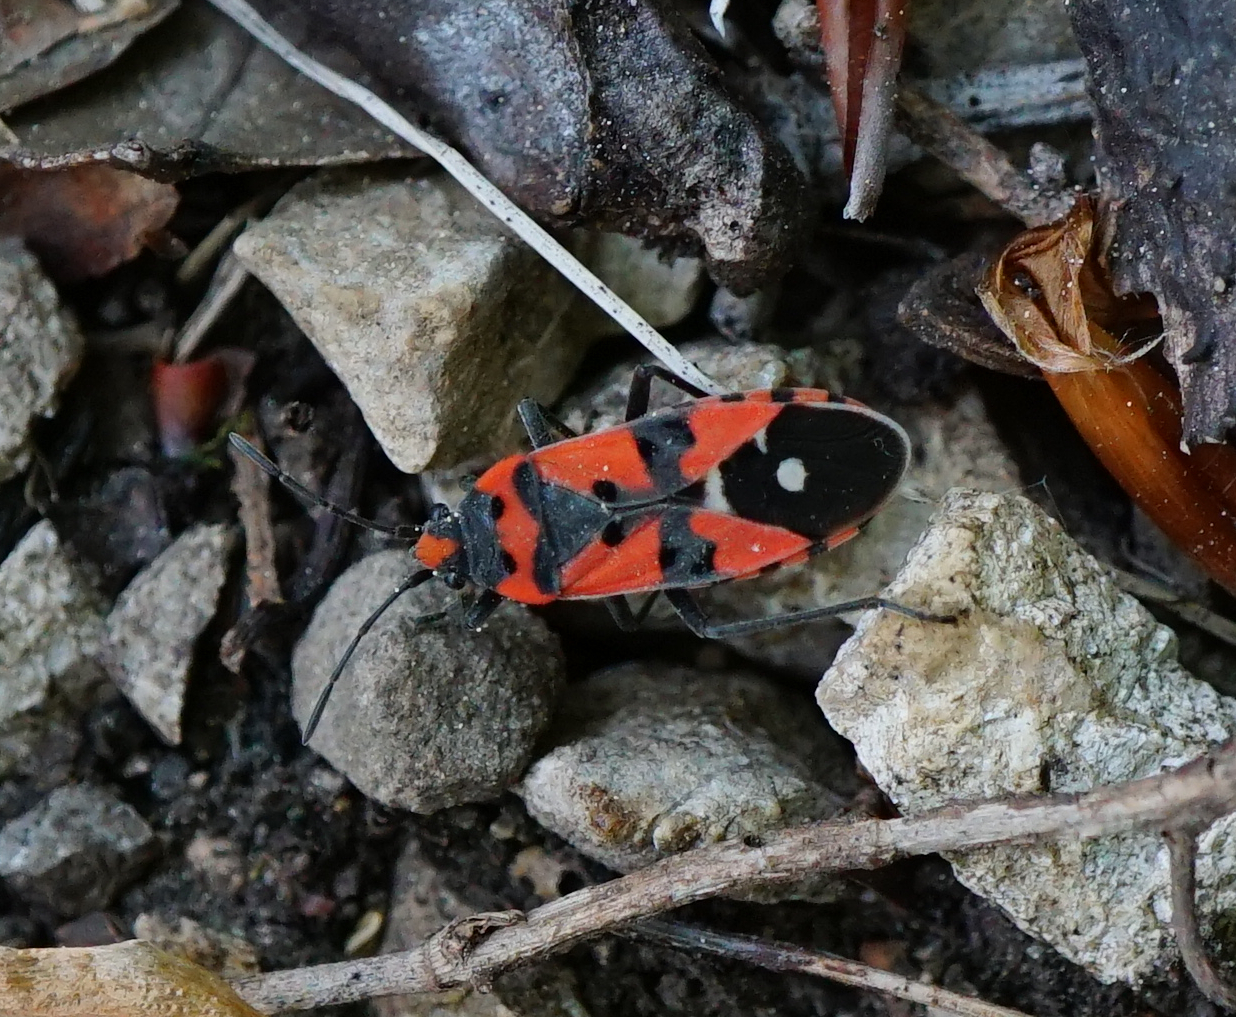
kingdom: Animalia
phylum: Arthropoda
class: Insecta
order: Hemiptera
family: Lygaeidae
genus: Lygaeus
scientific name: Lygaeus equestris
